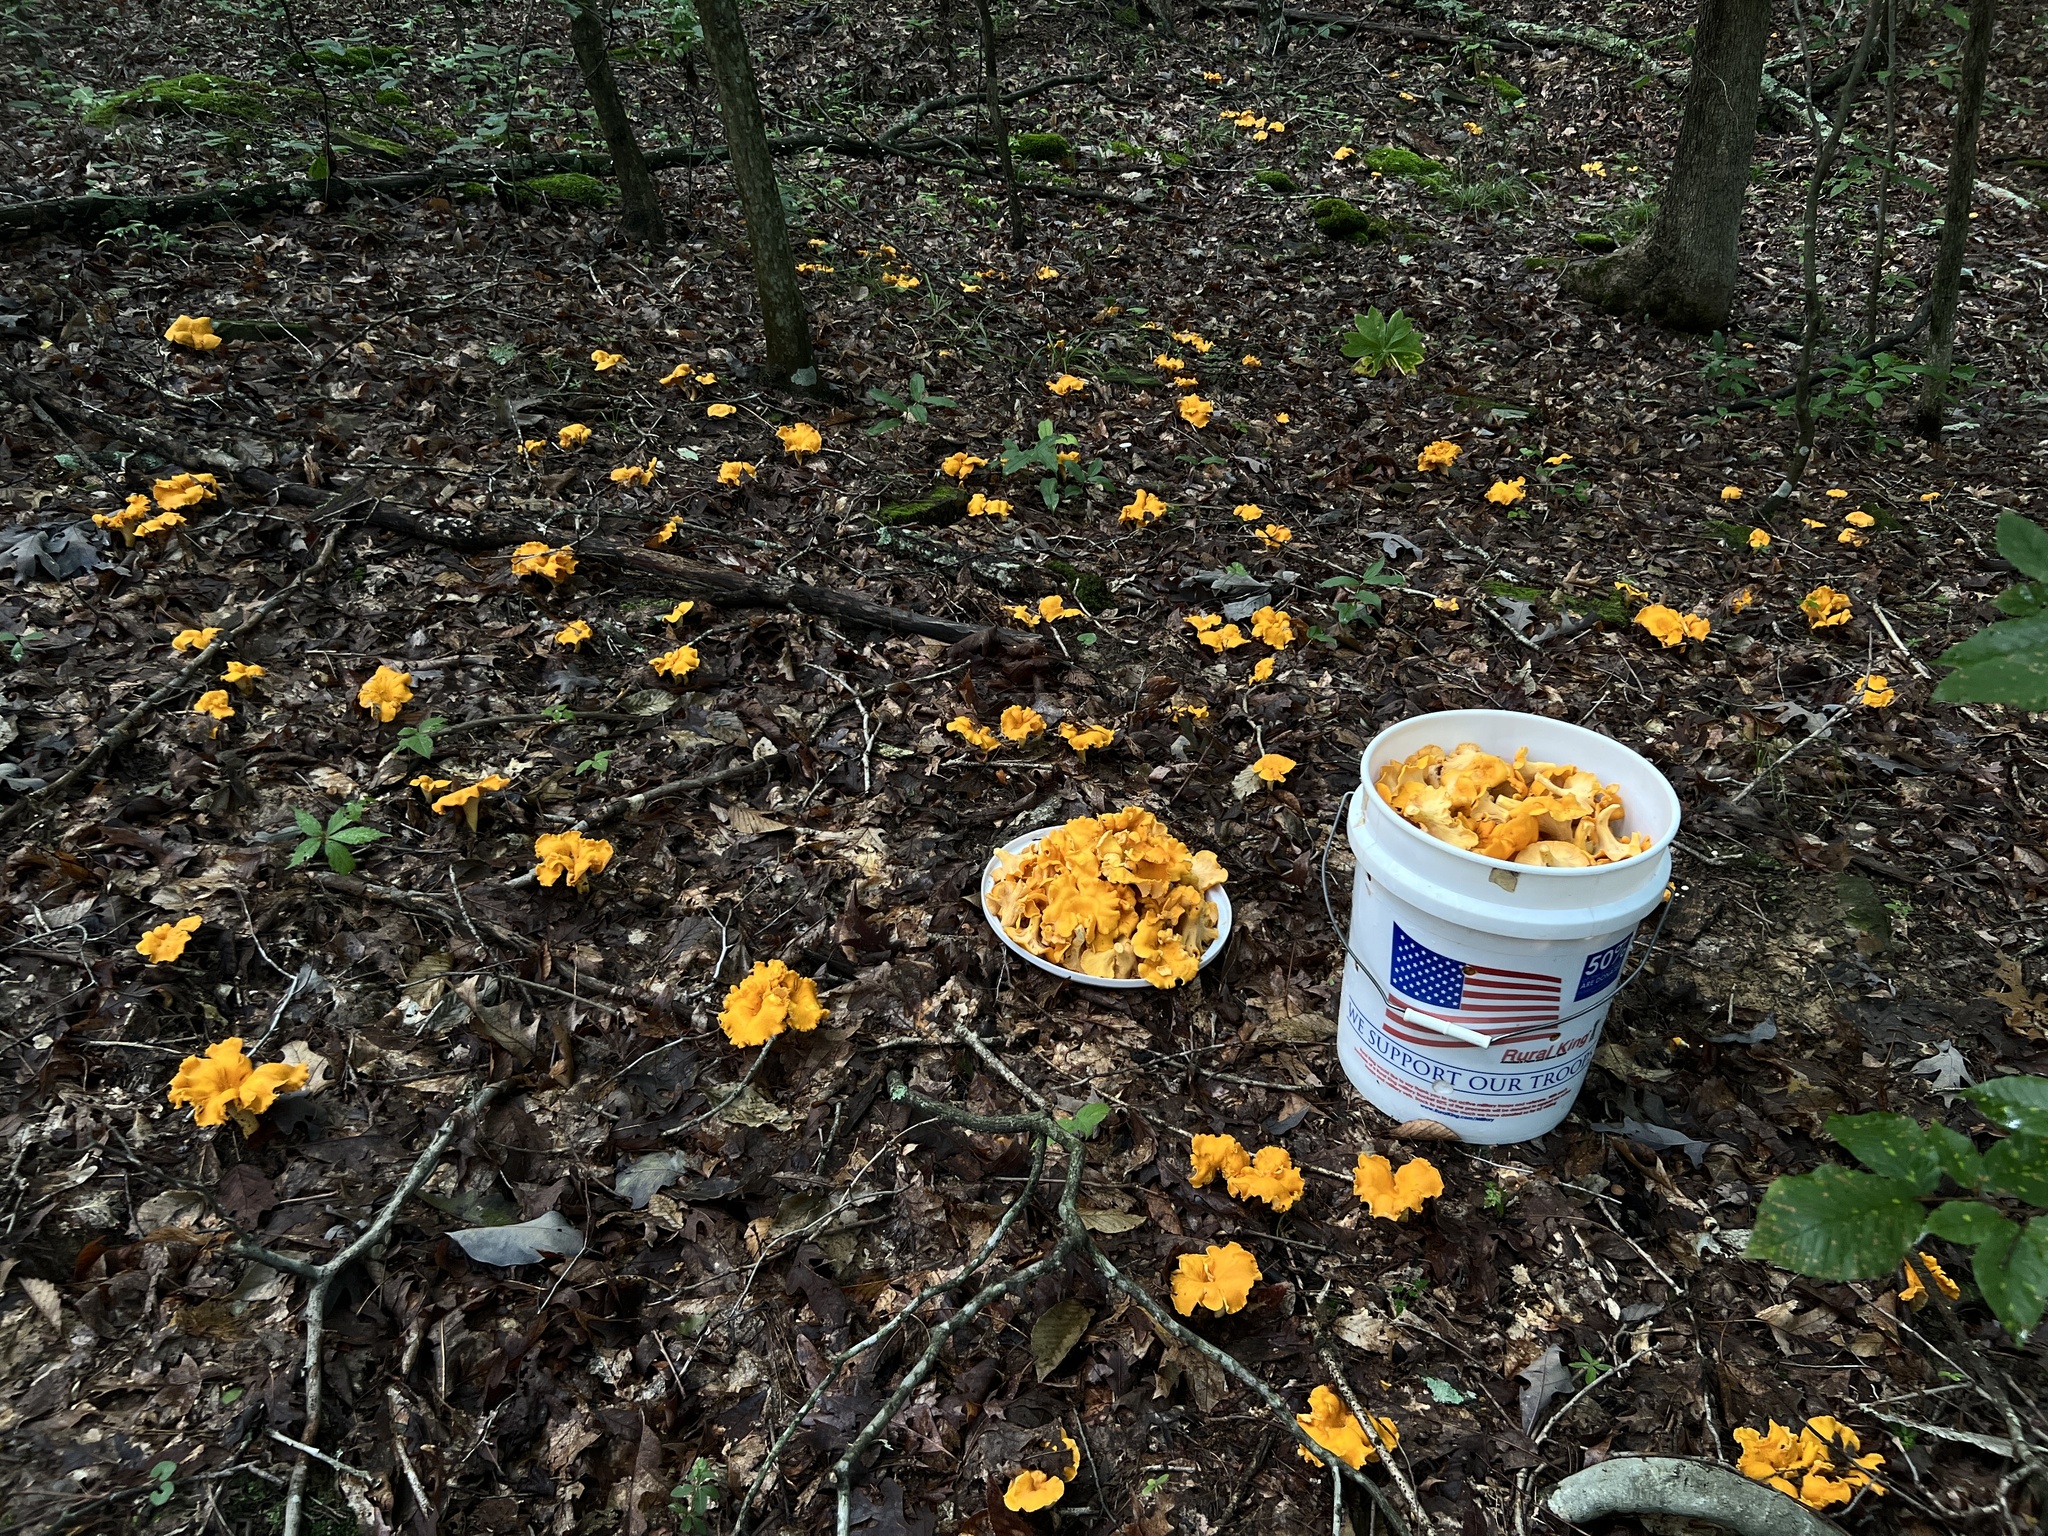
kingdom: Fungi
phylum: Basidiomycota
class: Agaricomycetes
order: Cantharellales
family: Hydnaceae
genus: Cantharellus
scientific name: Cantharellus flavolateritius
